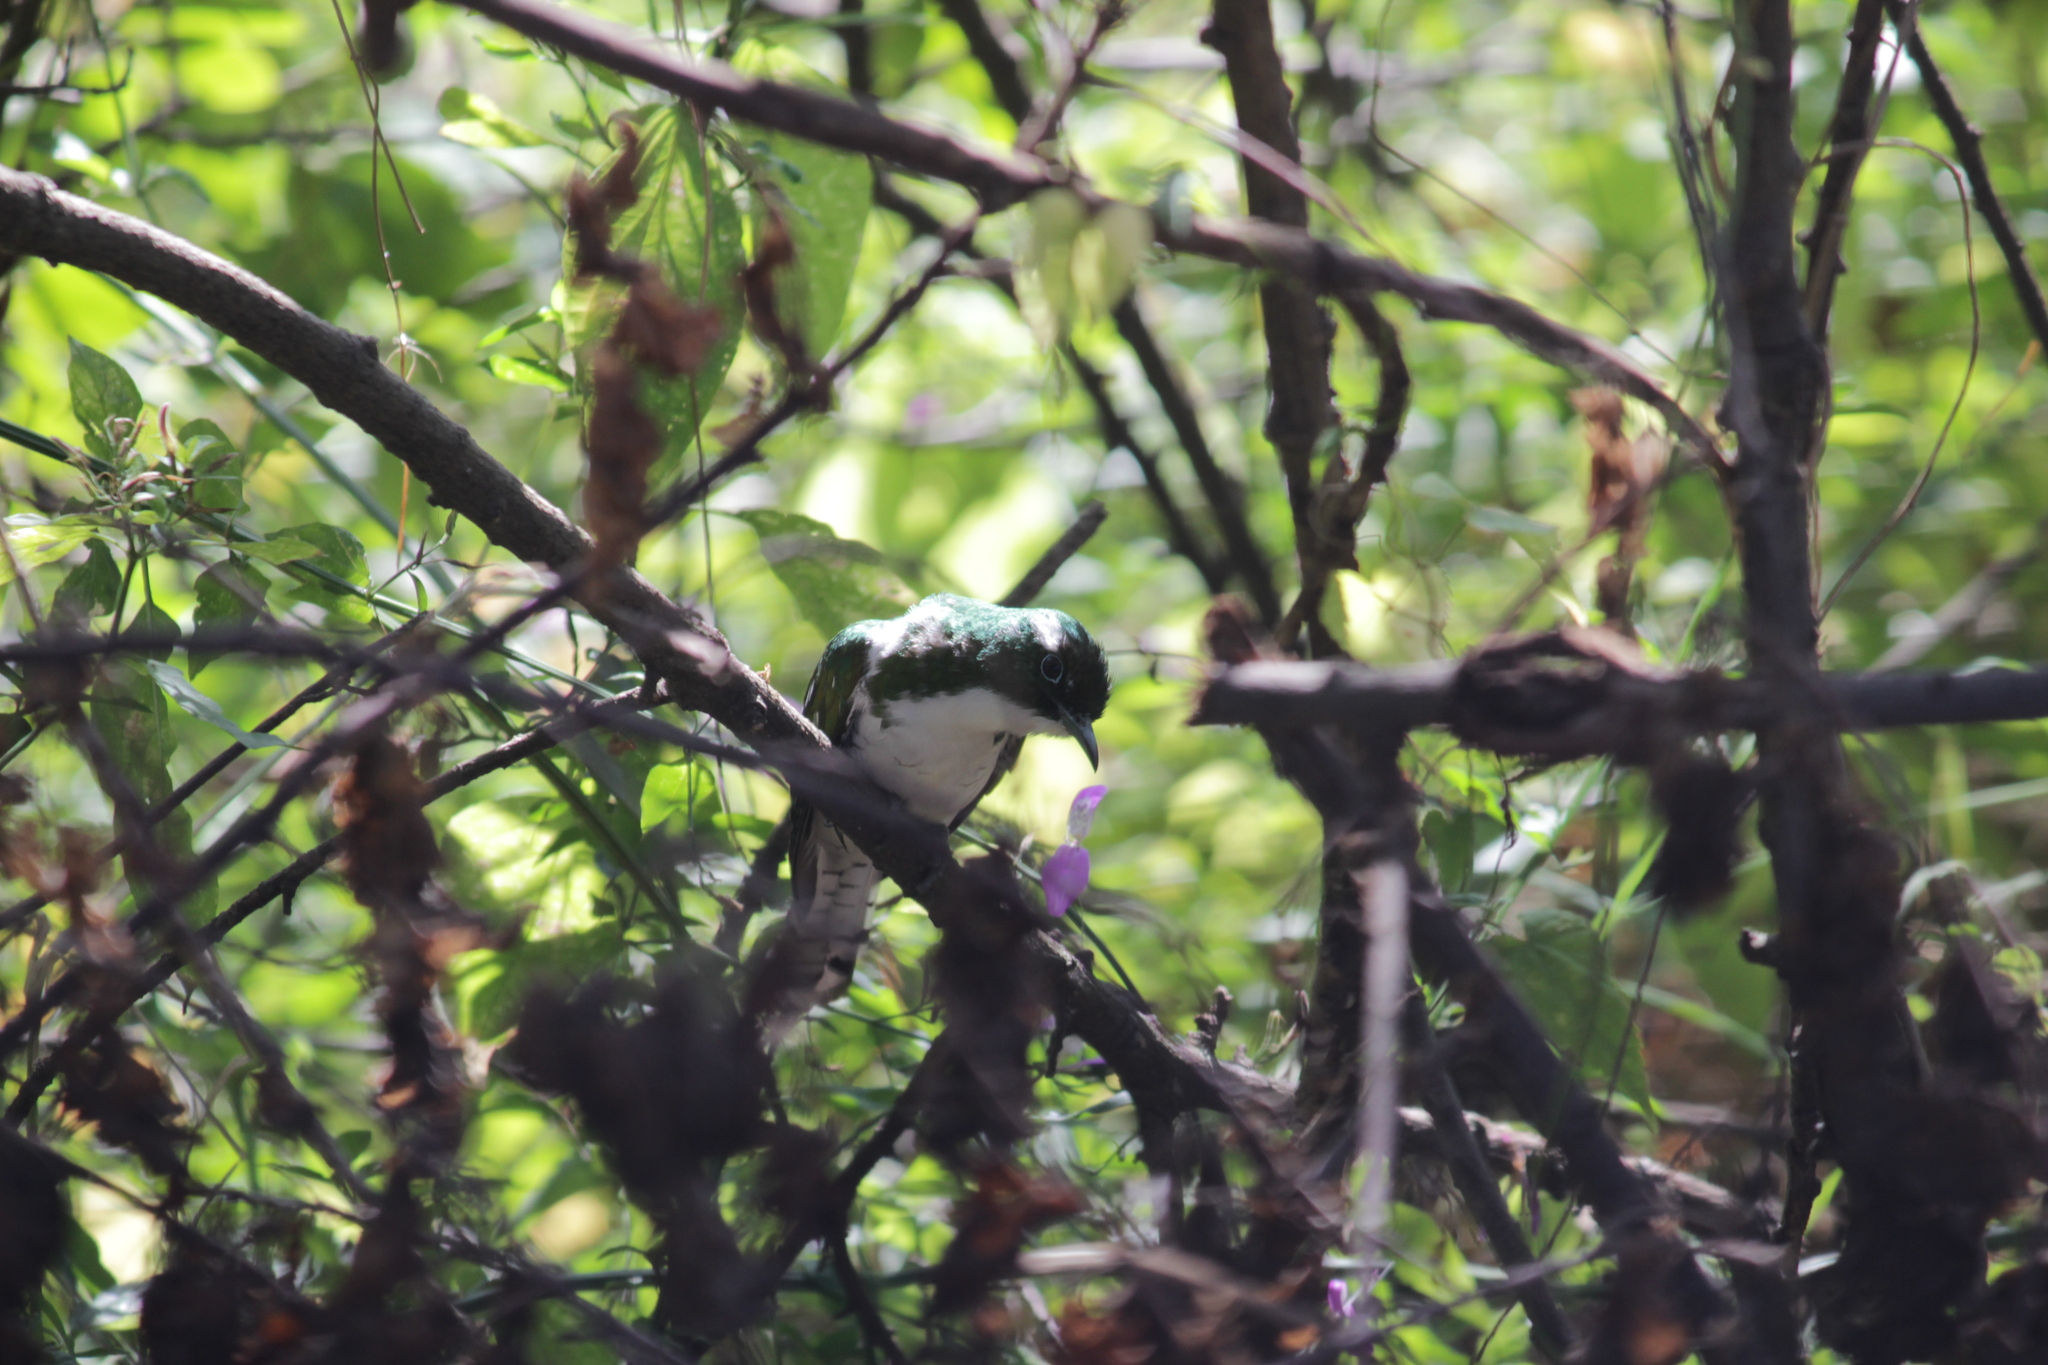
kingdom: Animalia
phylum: Chordata
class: Aves
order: Cuculiformes
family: Cuculidae
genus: Chrysococcyx
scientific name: Chrysococcyx klaas
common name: Klaas's cuckoo
